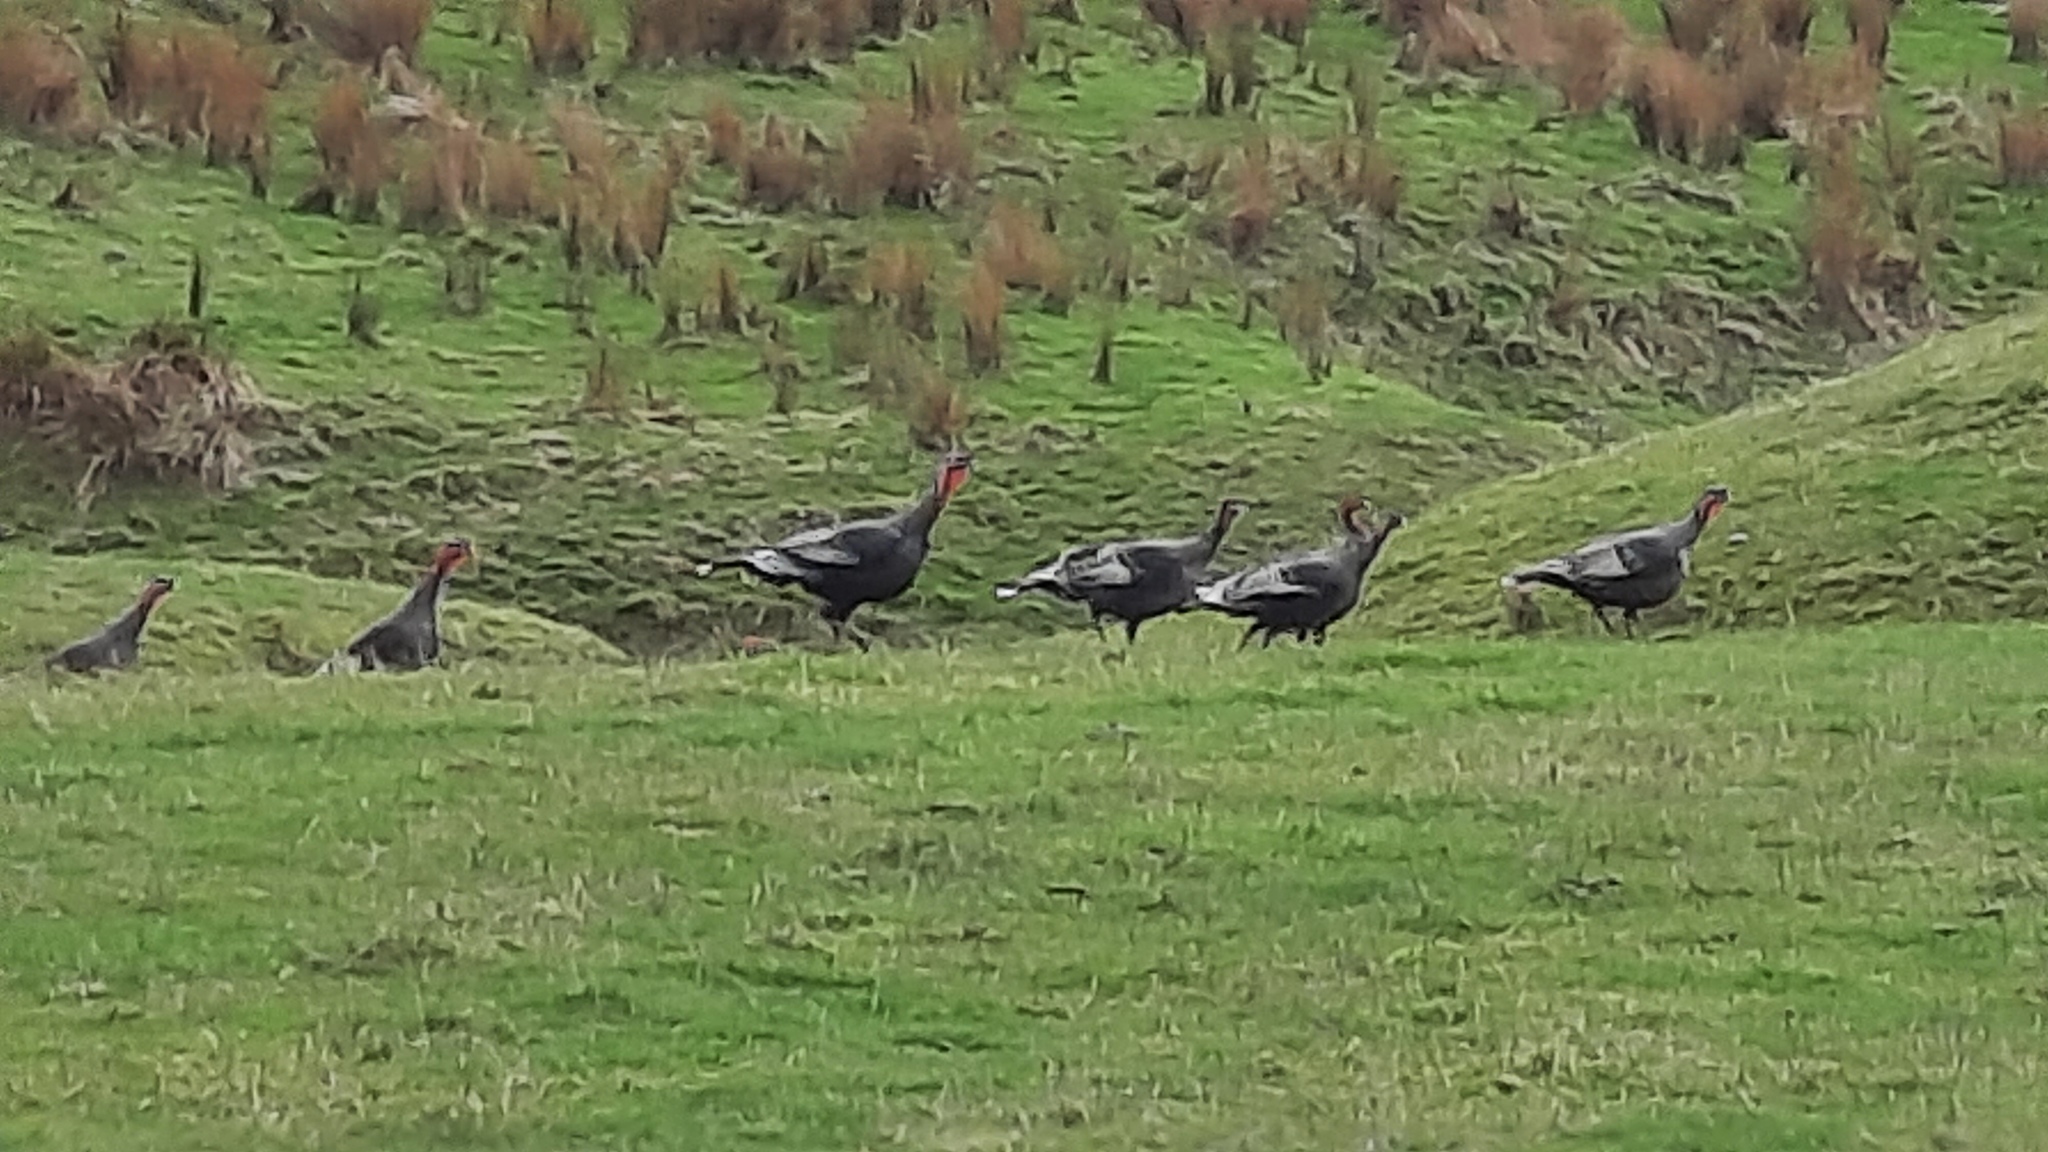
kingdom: Animalia
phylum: Chordata
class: Aves
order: Galliformes
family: Phasianidae
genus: Meleagris
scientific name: Meleagris gallopavo
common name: Wild turkey
